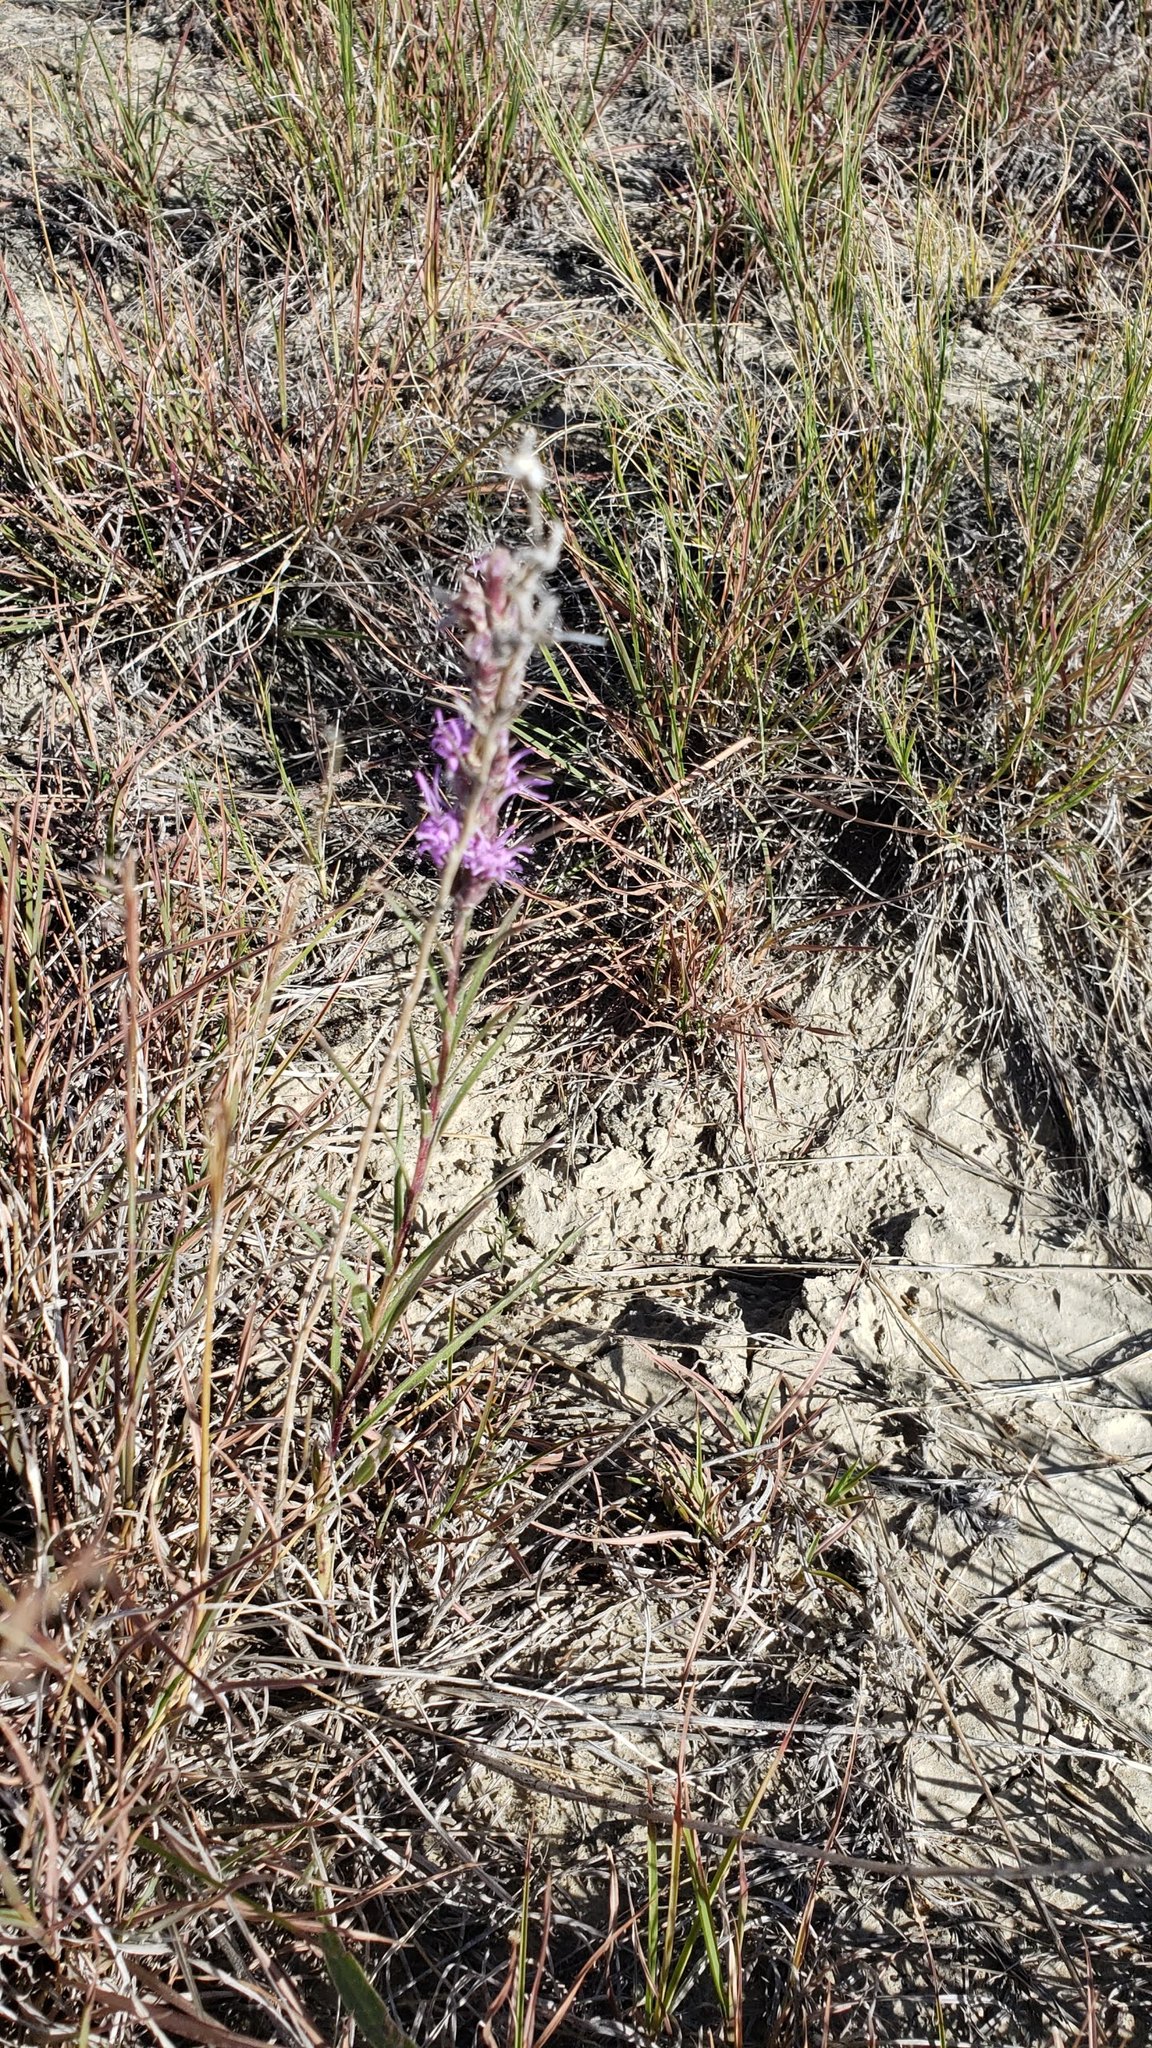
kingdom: Plantae
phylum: Tracheophyta
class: Magnoliopsida
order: Asterales
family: Asteraceae
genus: Liatris
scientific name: Liatris punctata
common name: Dotted gayfeather
